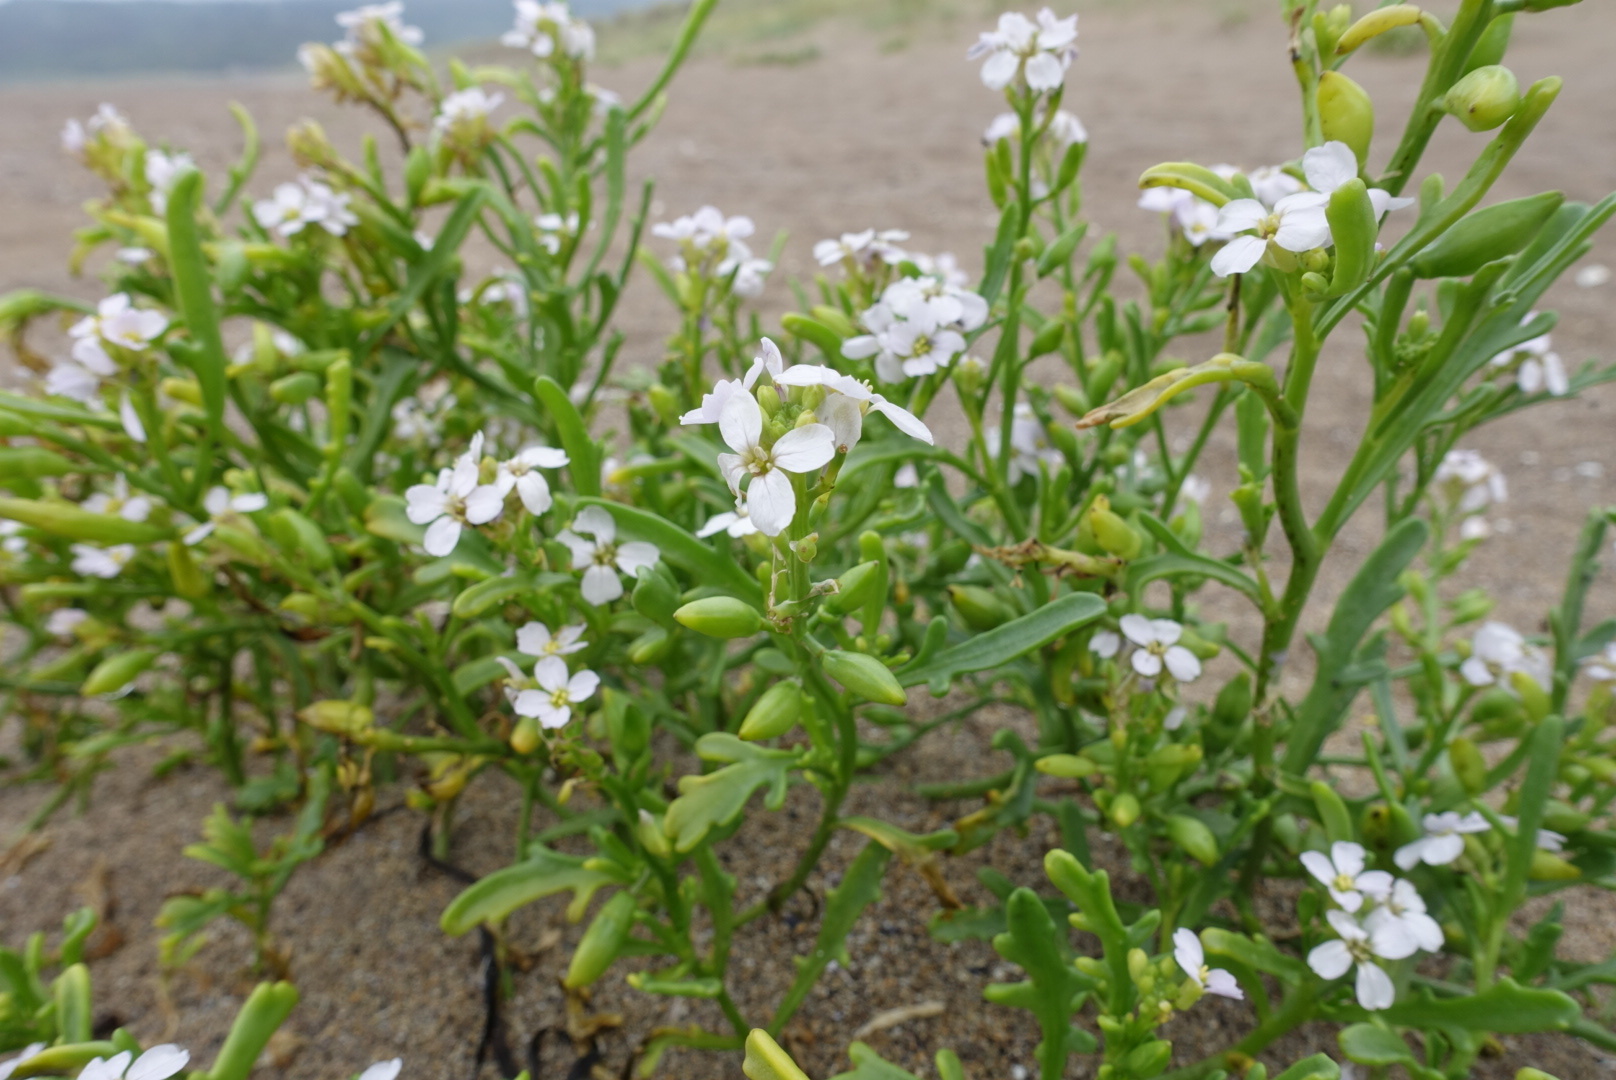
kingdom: Plantae
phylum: Tracheophyta
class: Magnoliopsida
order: Brassicales
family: Brassicaceae
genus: Cakile
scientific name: Cakile maritima
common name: Sea rocket
